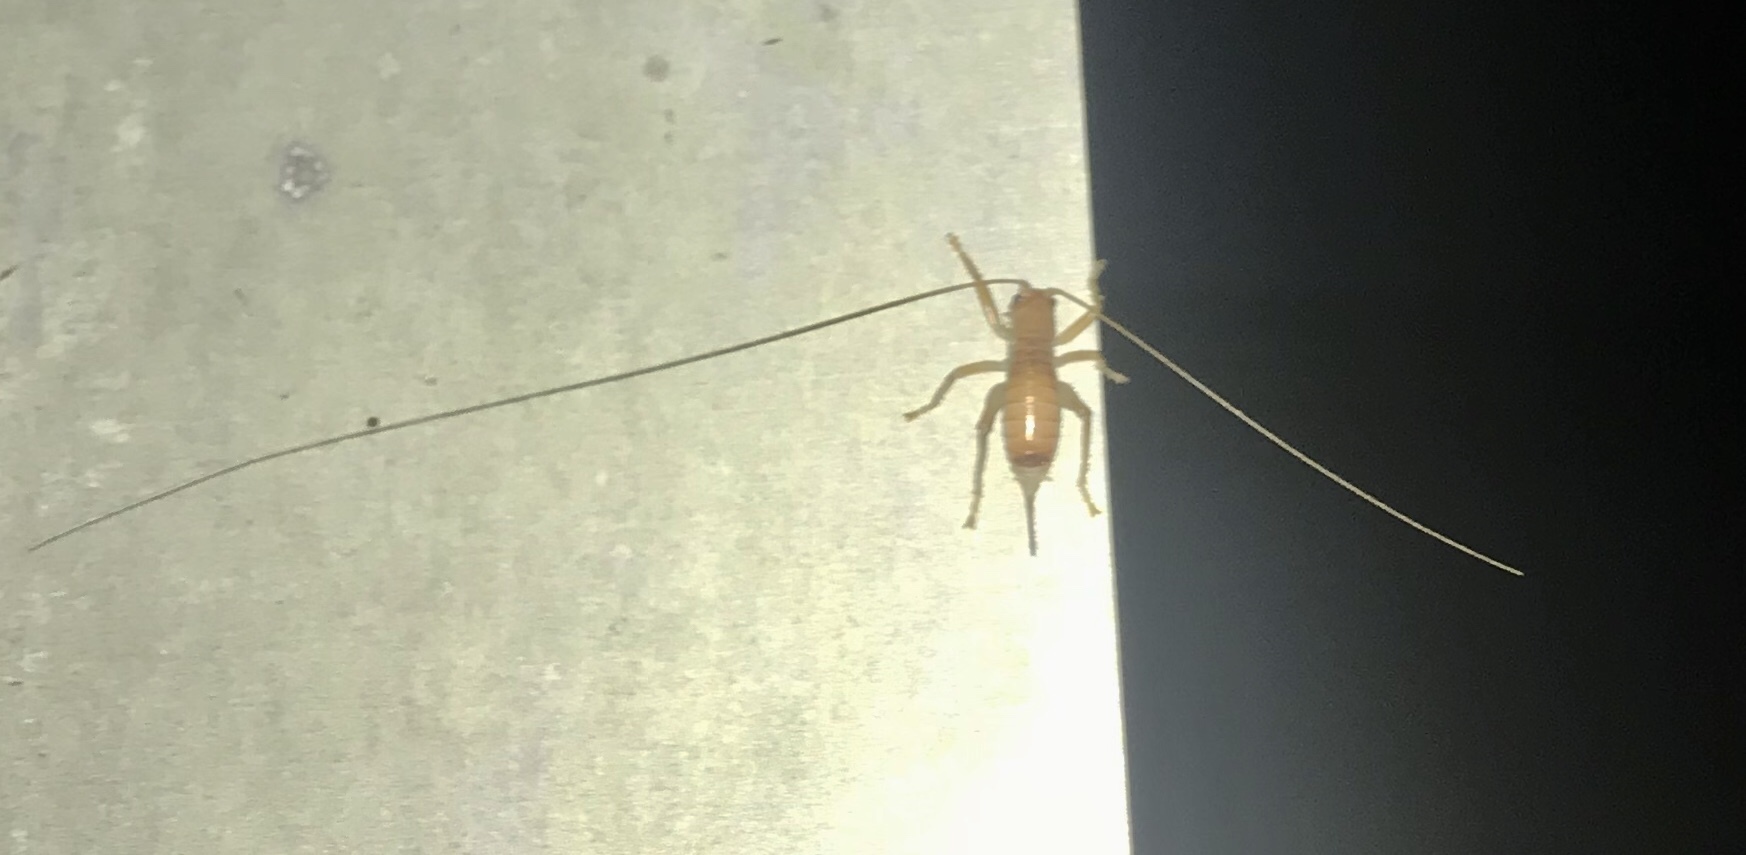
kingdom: Animalia
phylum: Arthropoda
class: Insecta
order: Orthoptera
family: Gryllacrididae
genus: Camptonotus
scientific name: Camptonotus carolinensis
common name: Carolina leaf-roller
